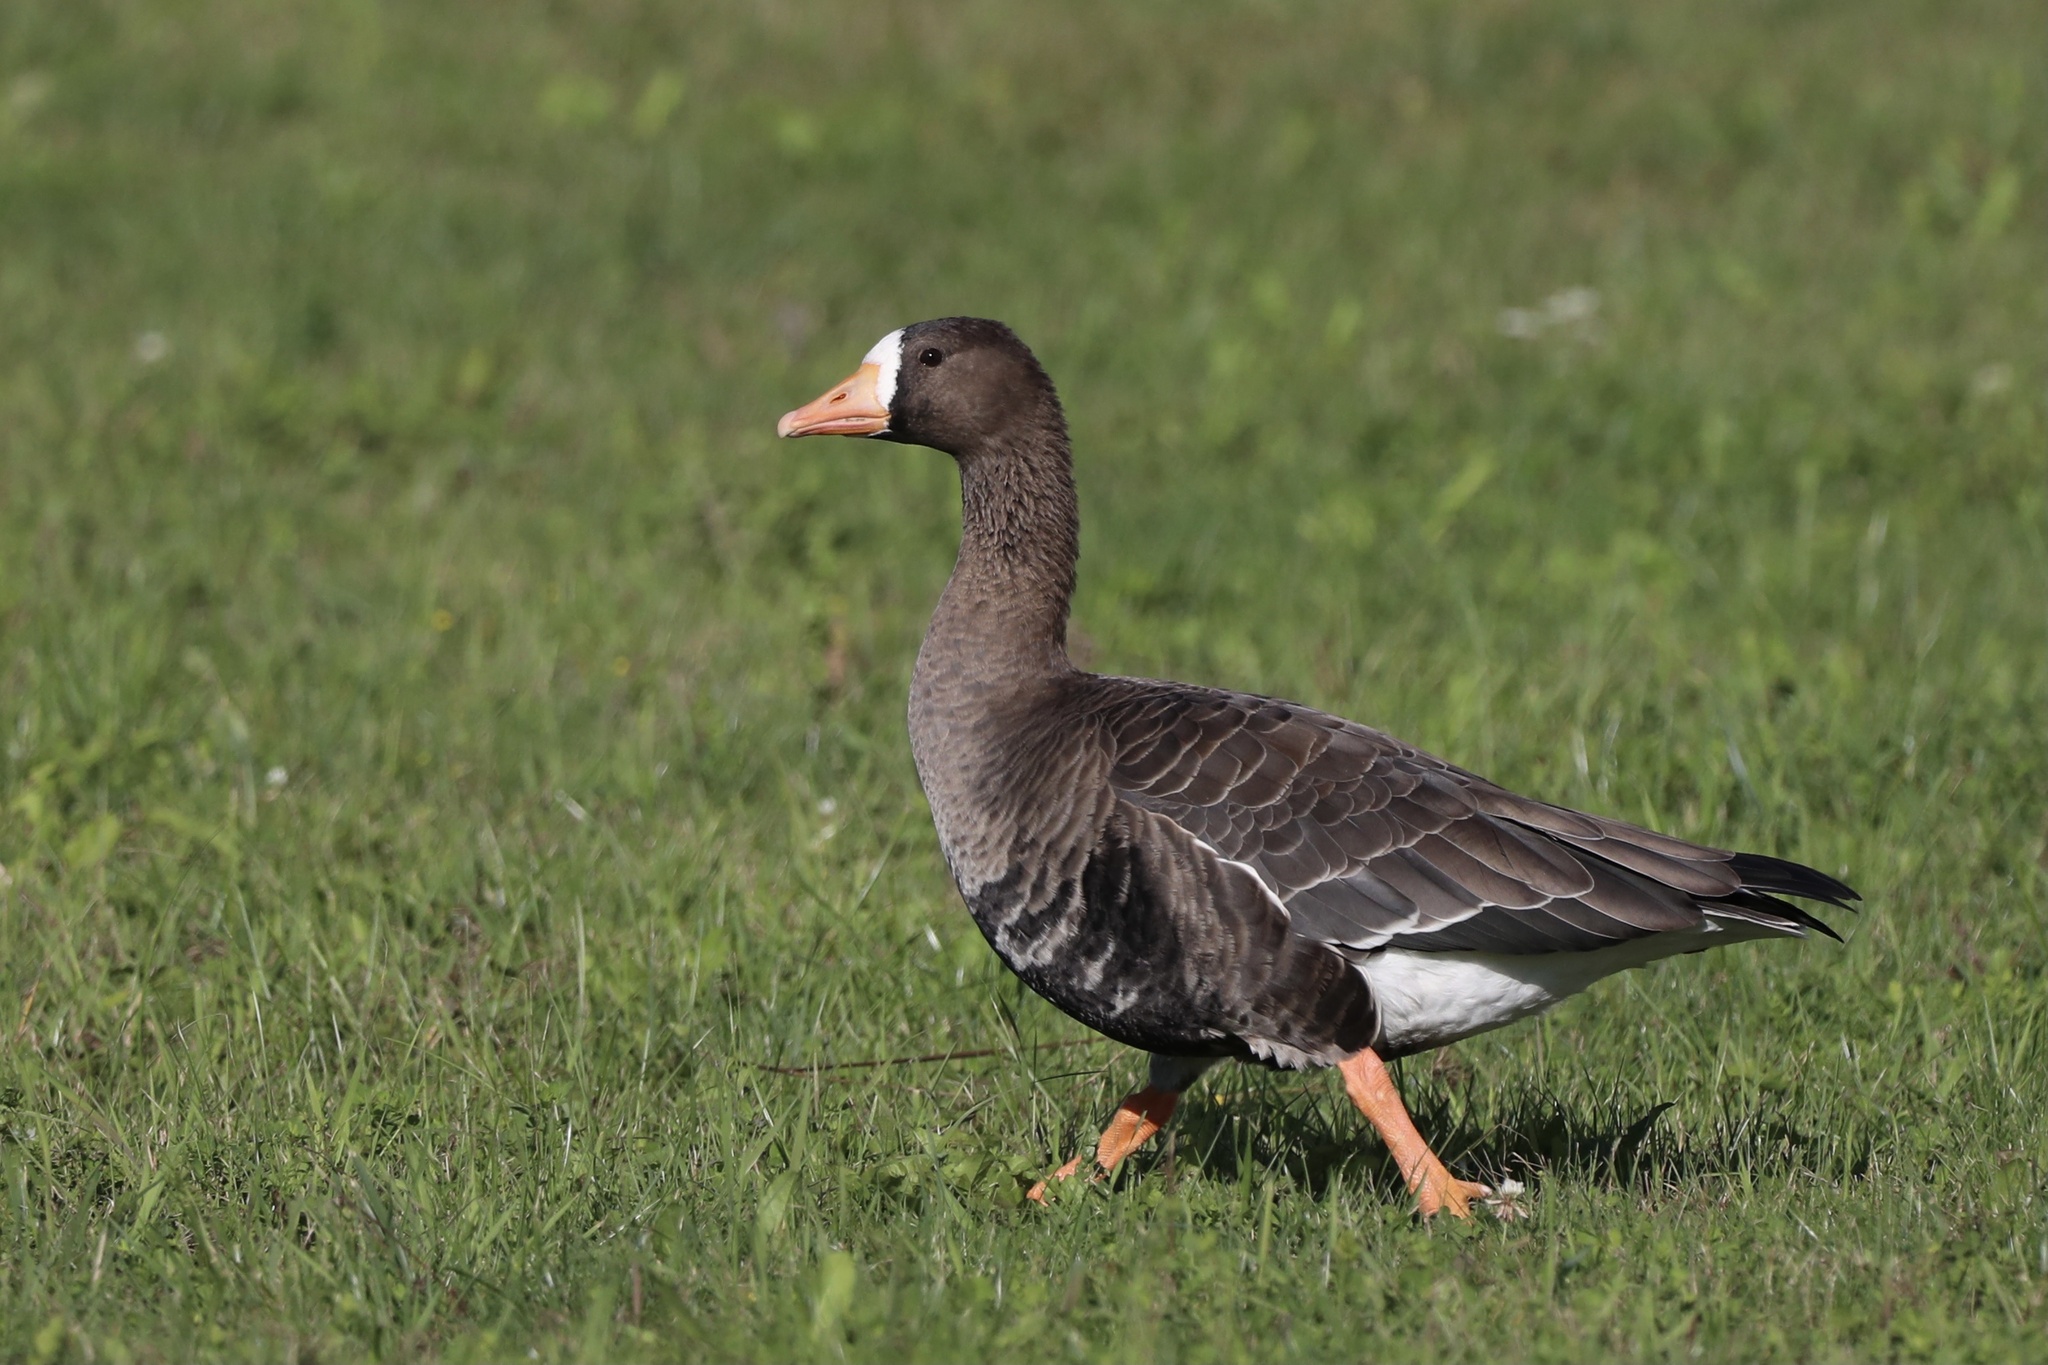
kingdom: Animalia
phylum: Chordata
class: Aves
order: Anseriformes
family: Anatidae
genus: Anser
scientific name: Anser albifrons
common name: Greater white-fronted goose
